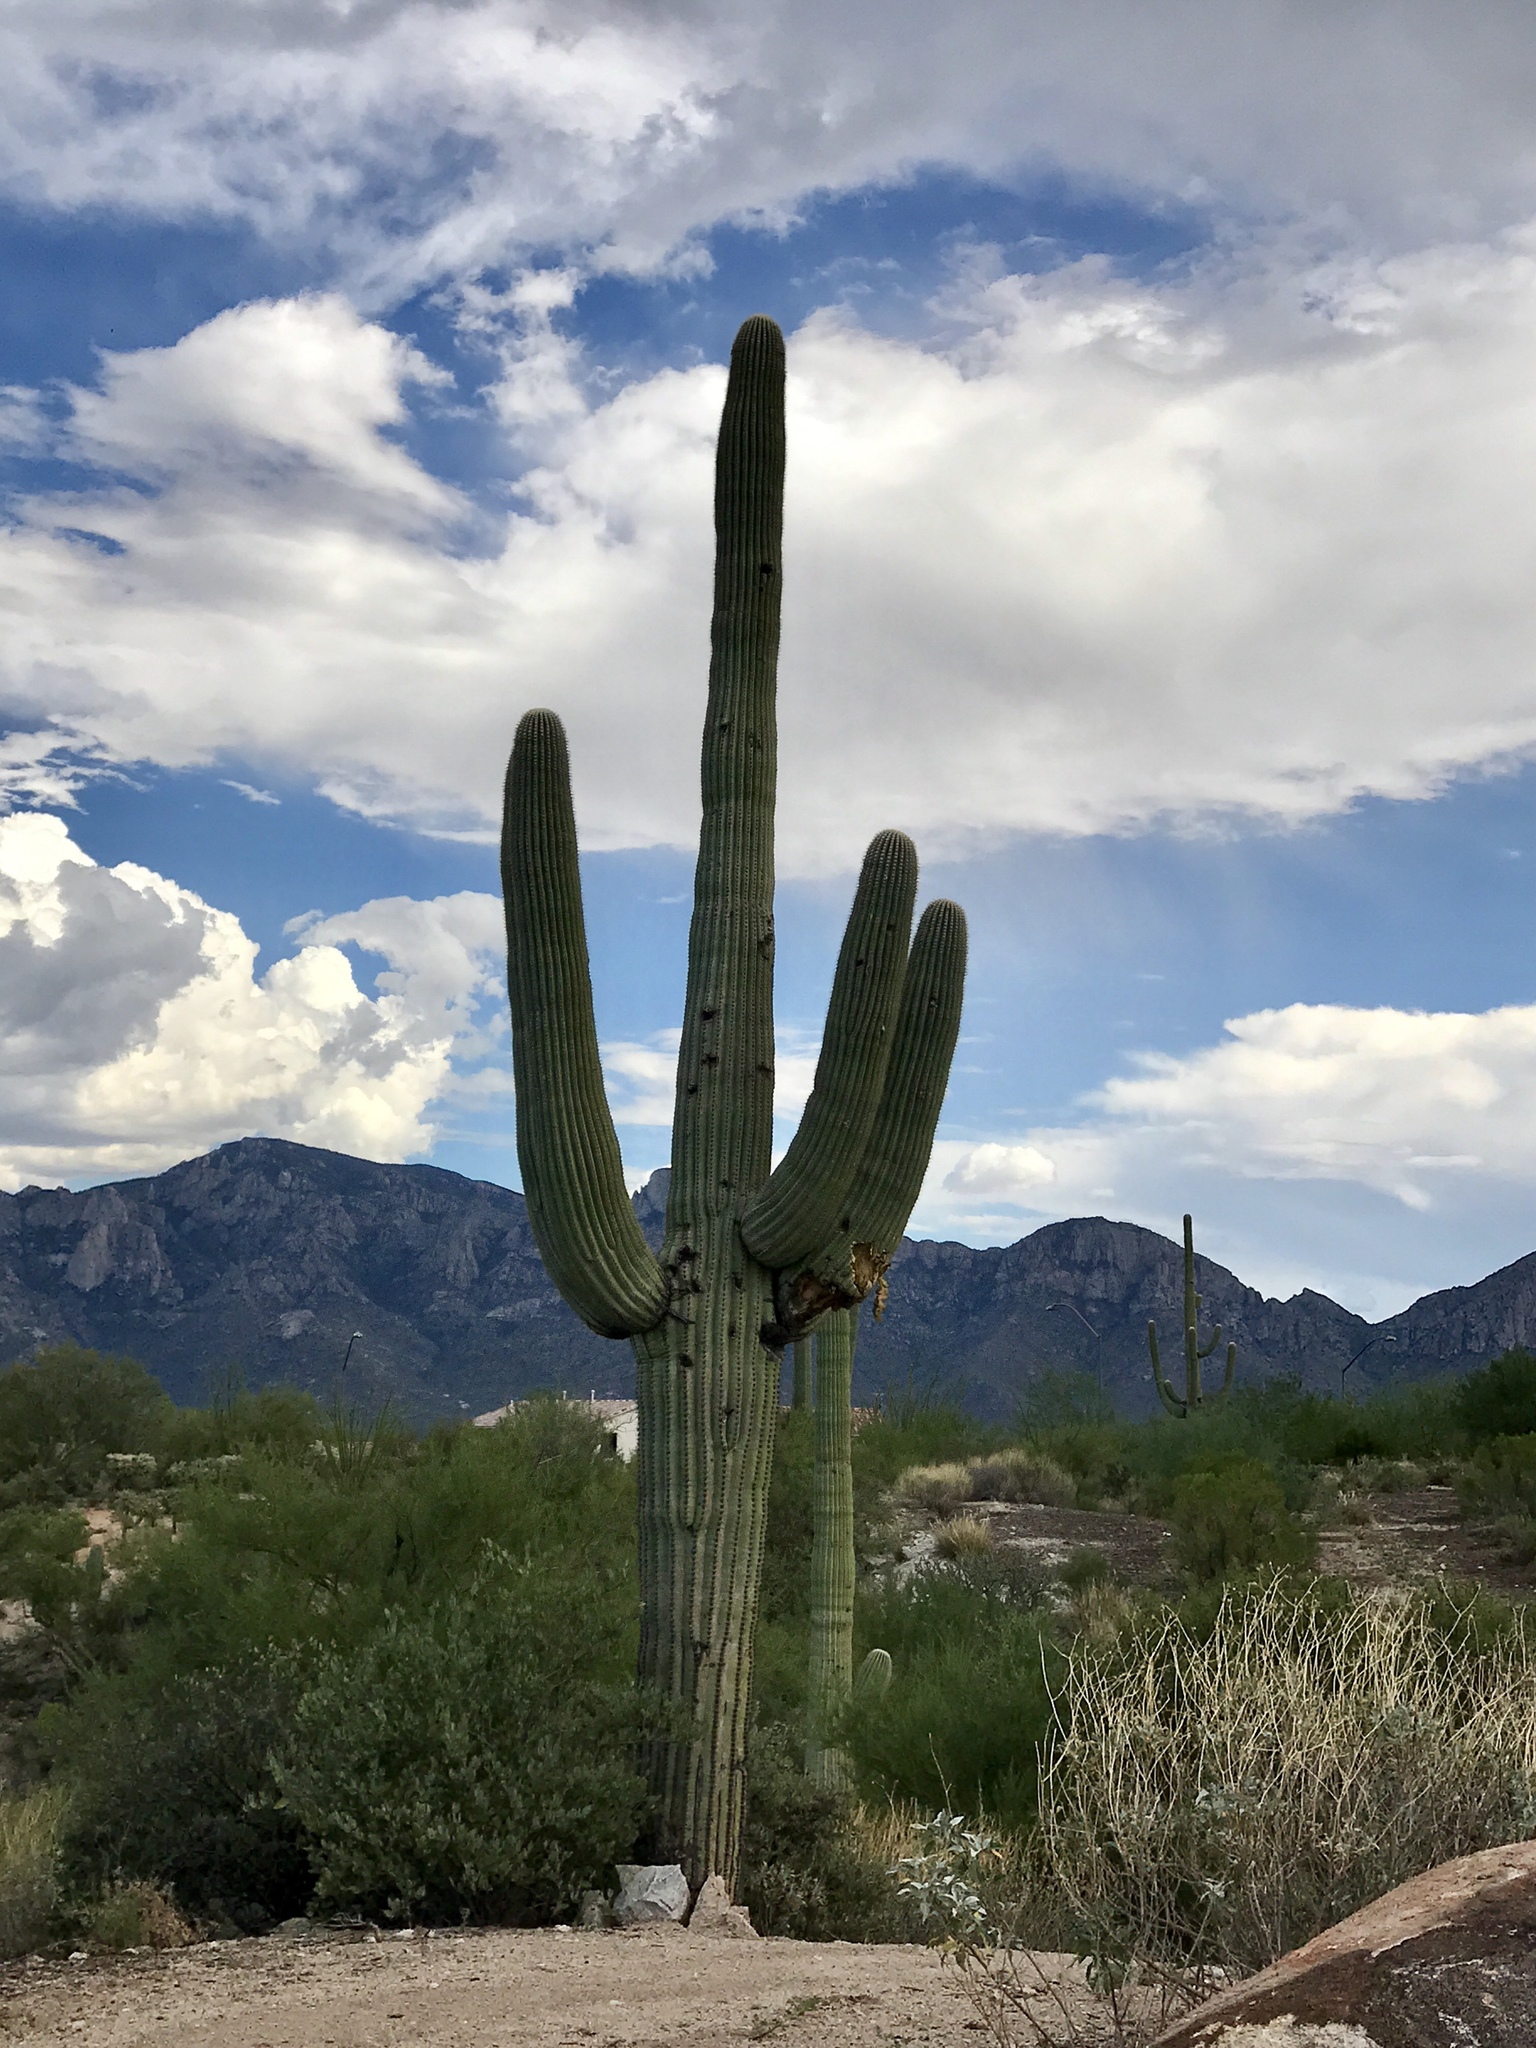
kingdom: Plantae
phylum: Tracheophyta
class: Magnoliopsida
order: Caryophyllales
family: Cactaceae
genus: Carnegiea
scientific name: Carnegiea gigantea
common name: Saguaro
